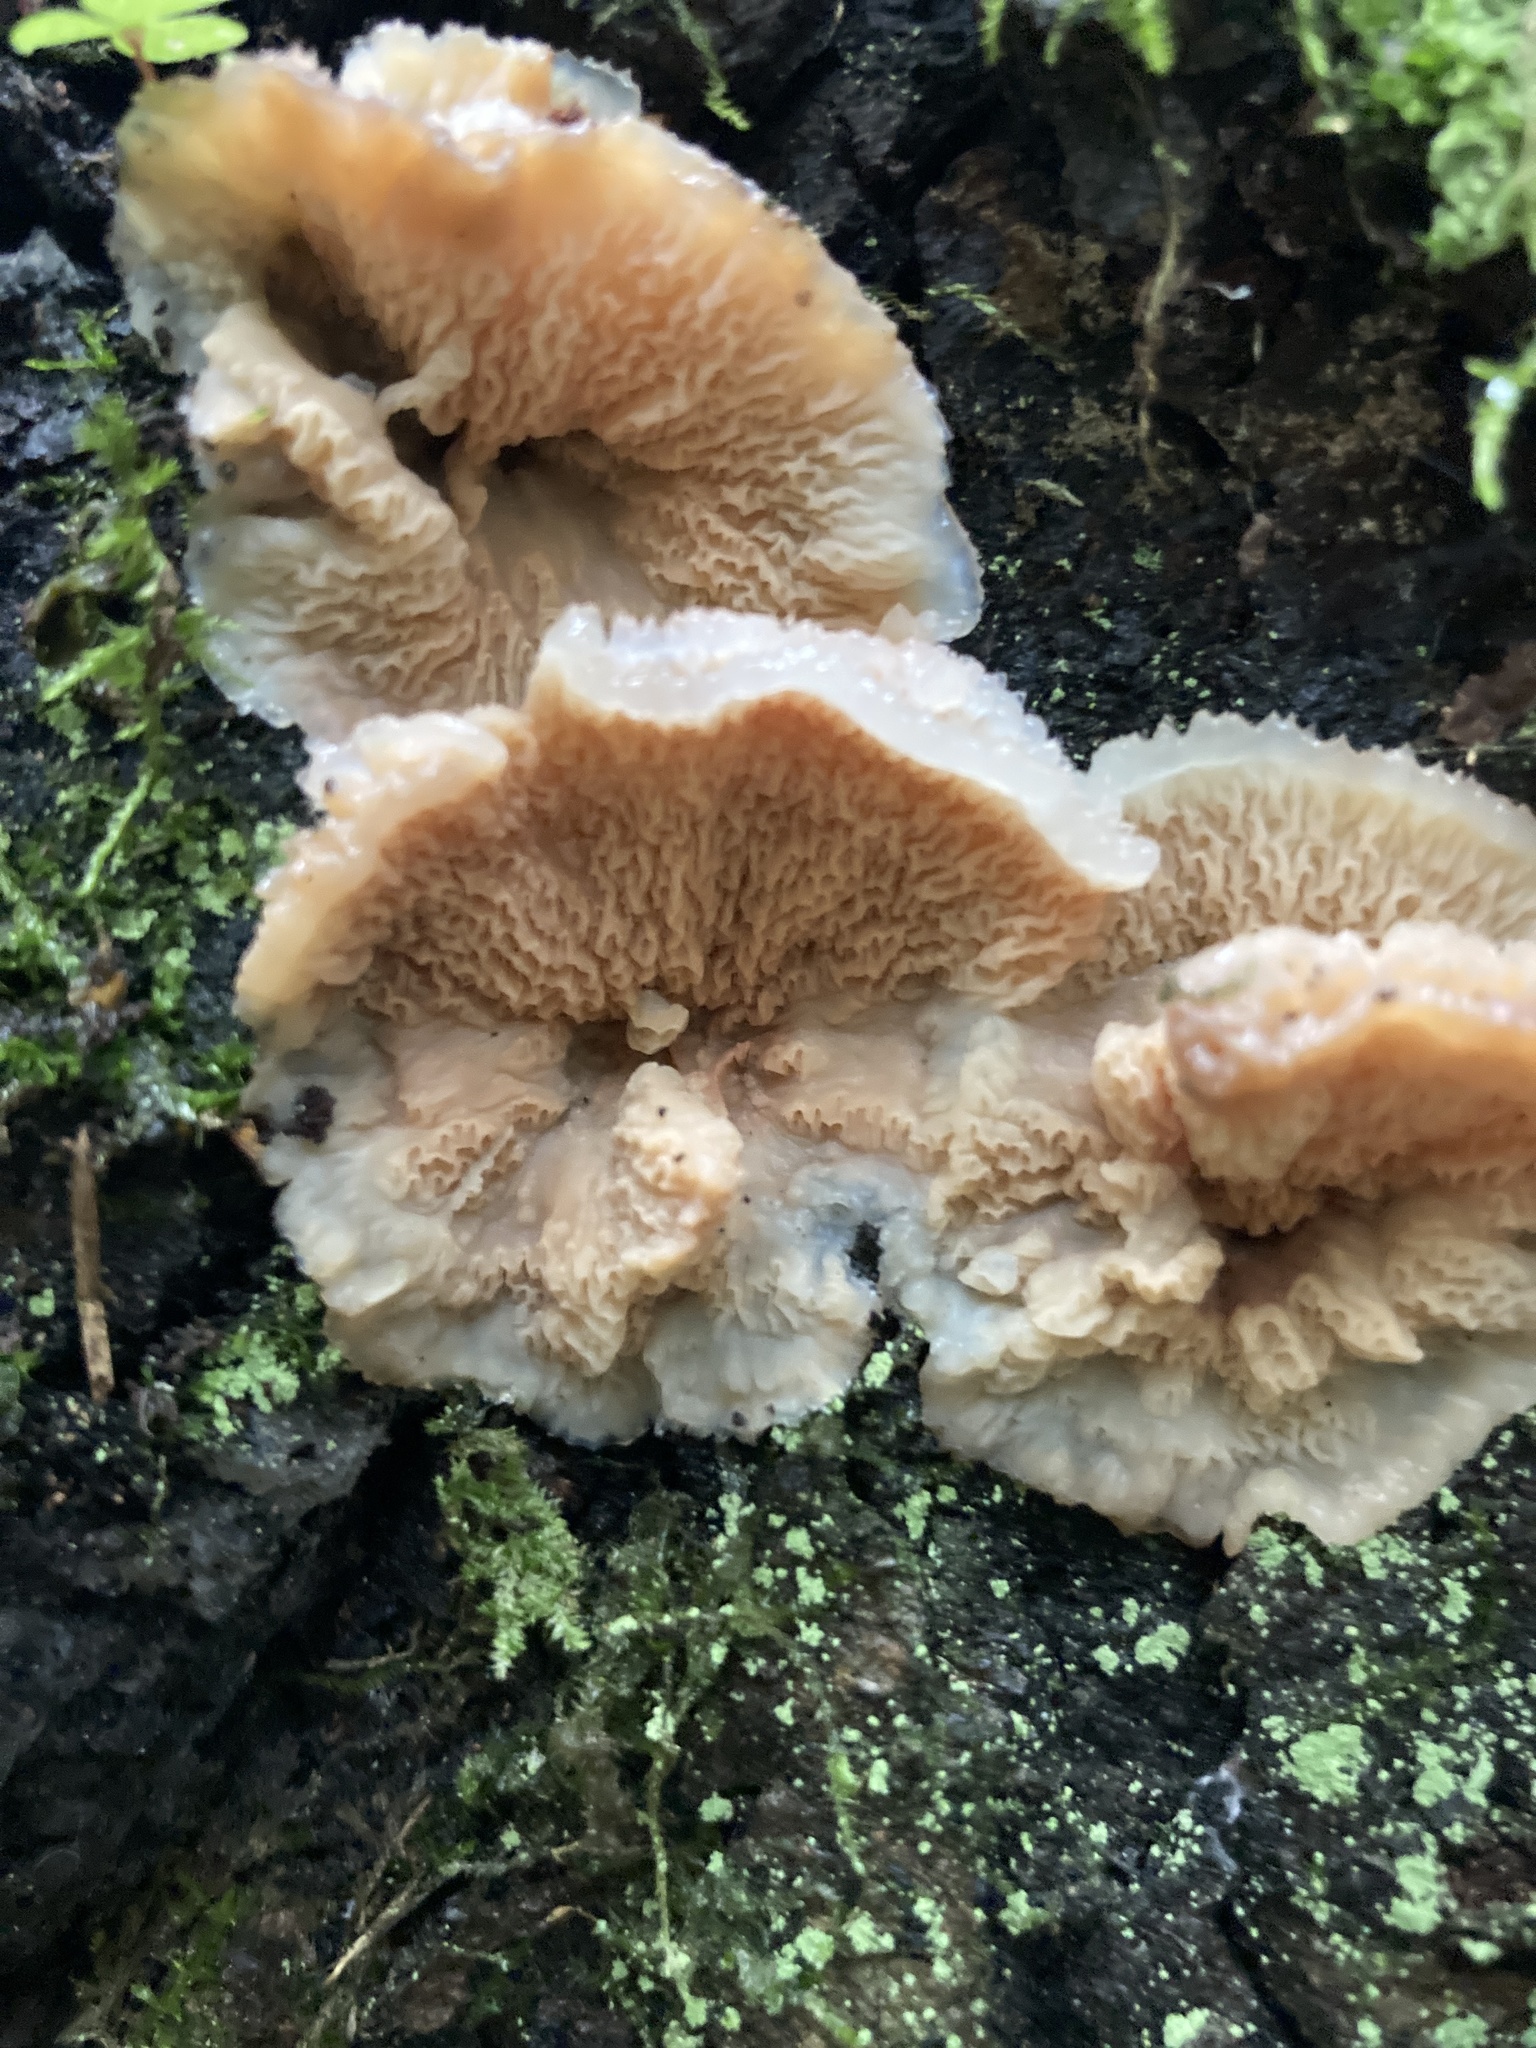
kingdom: Fungi
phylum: Basidiomycota
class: Agaricomycetes
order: Polyporales
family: Meruliaceae
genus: Phlebia
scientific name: Phlebia tremellosa
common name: Jelly rot
